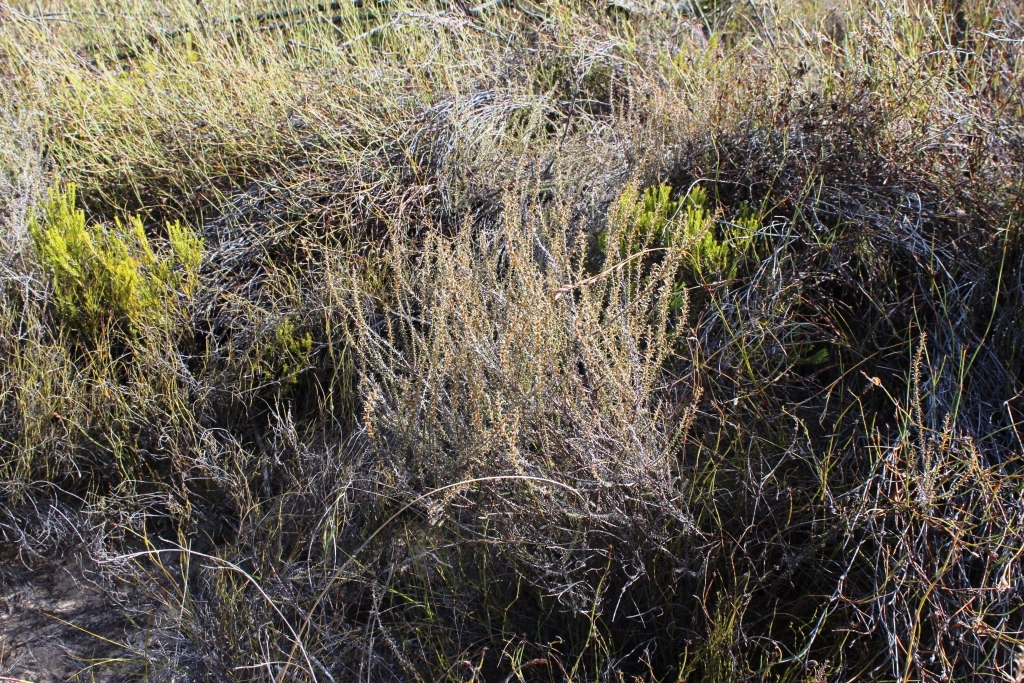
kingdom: Plantae
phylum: Tracheophyta
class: Magnoliopsida
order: Asterales
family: Asteraceae
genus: Myrovernix
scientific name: Myrovernix glandulosus
